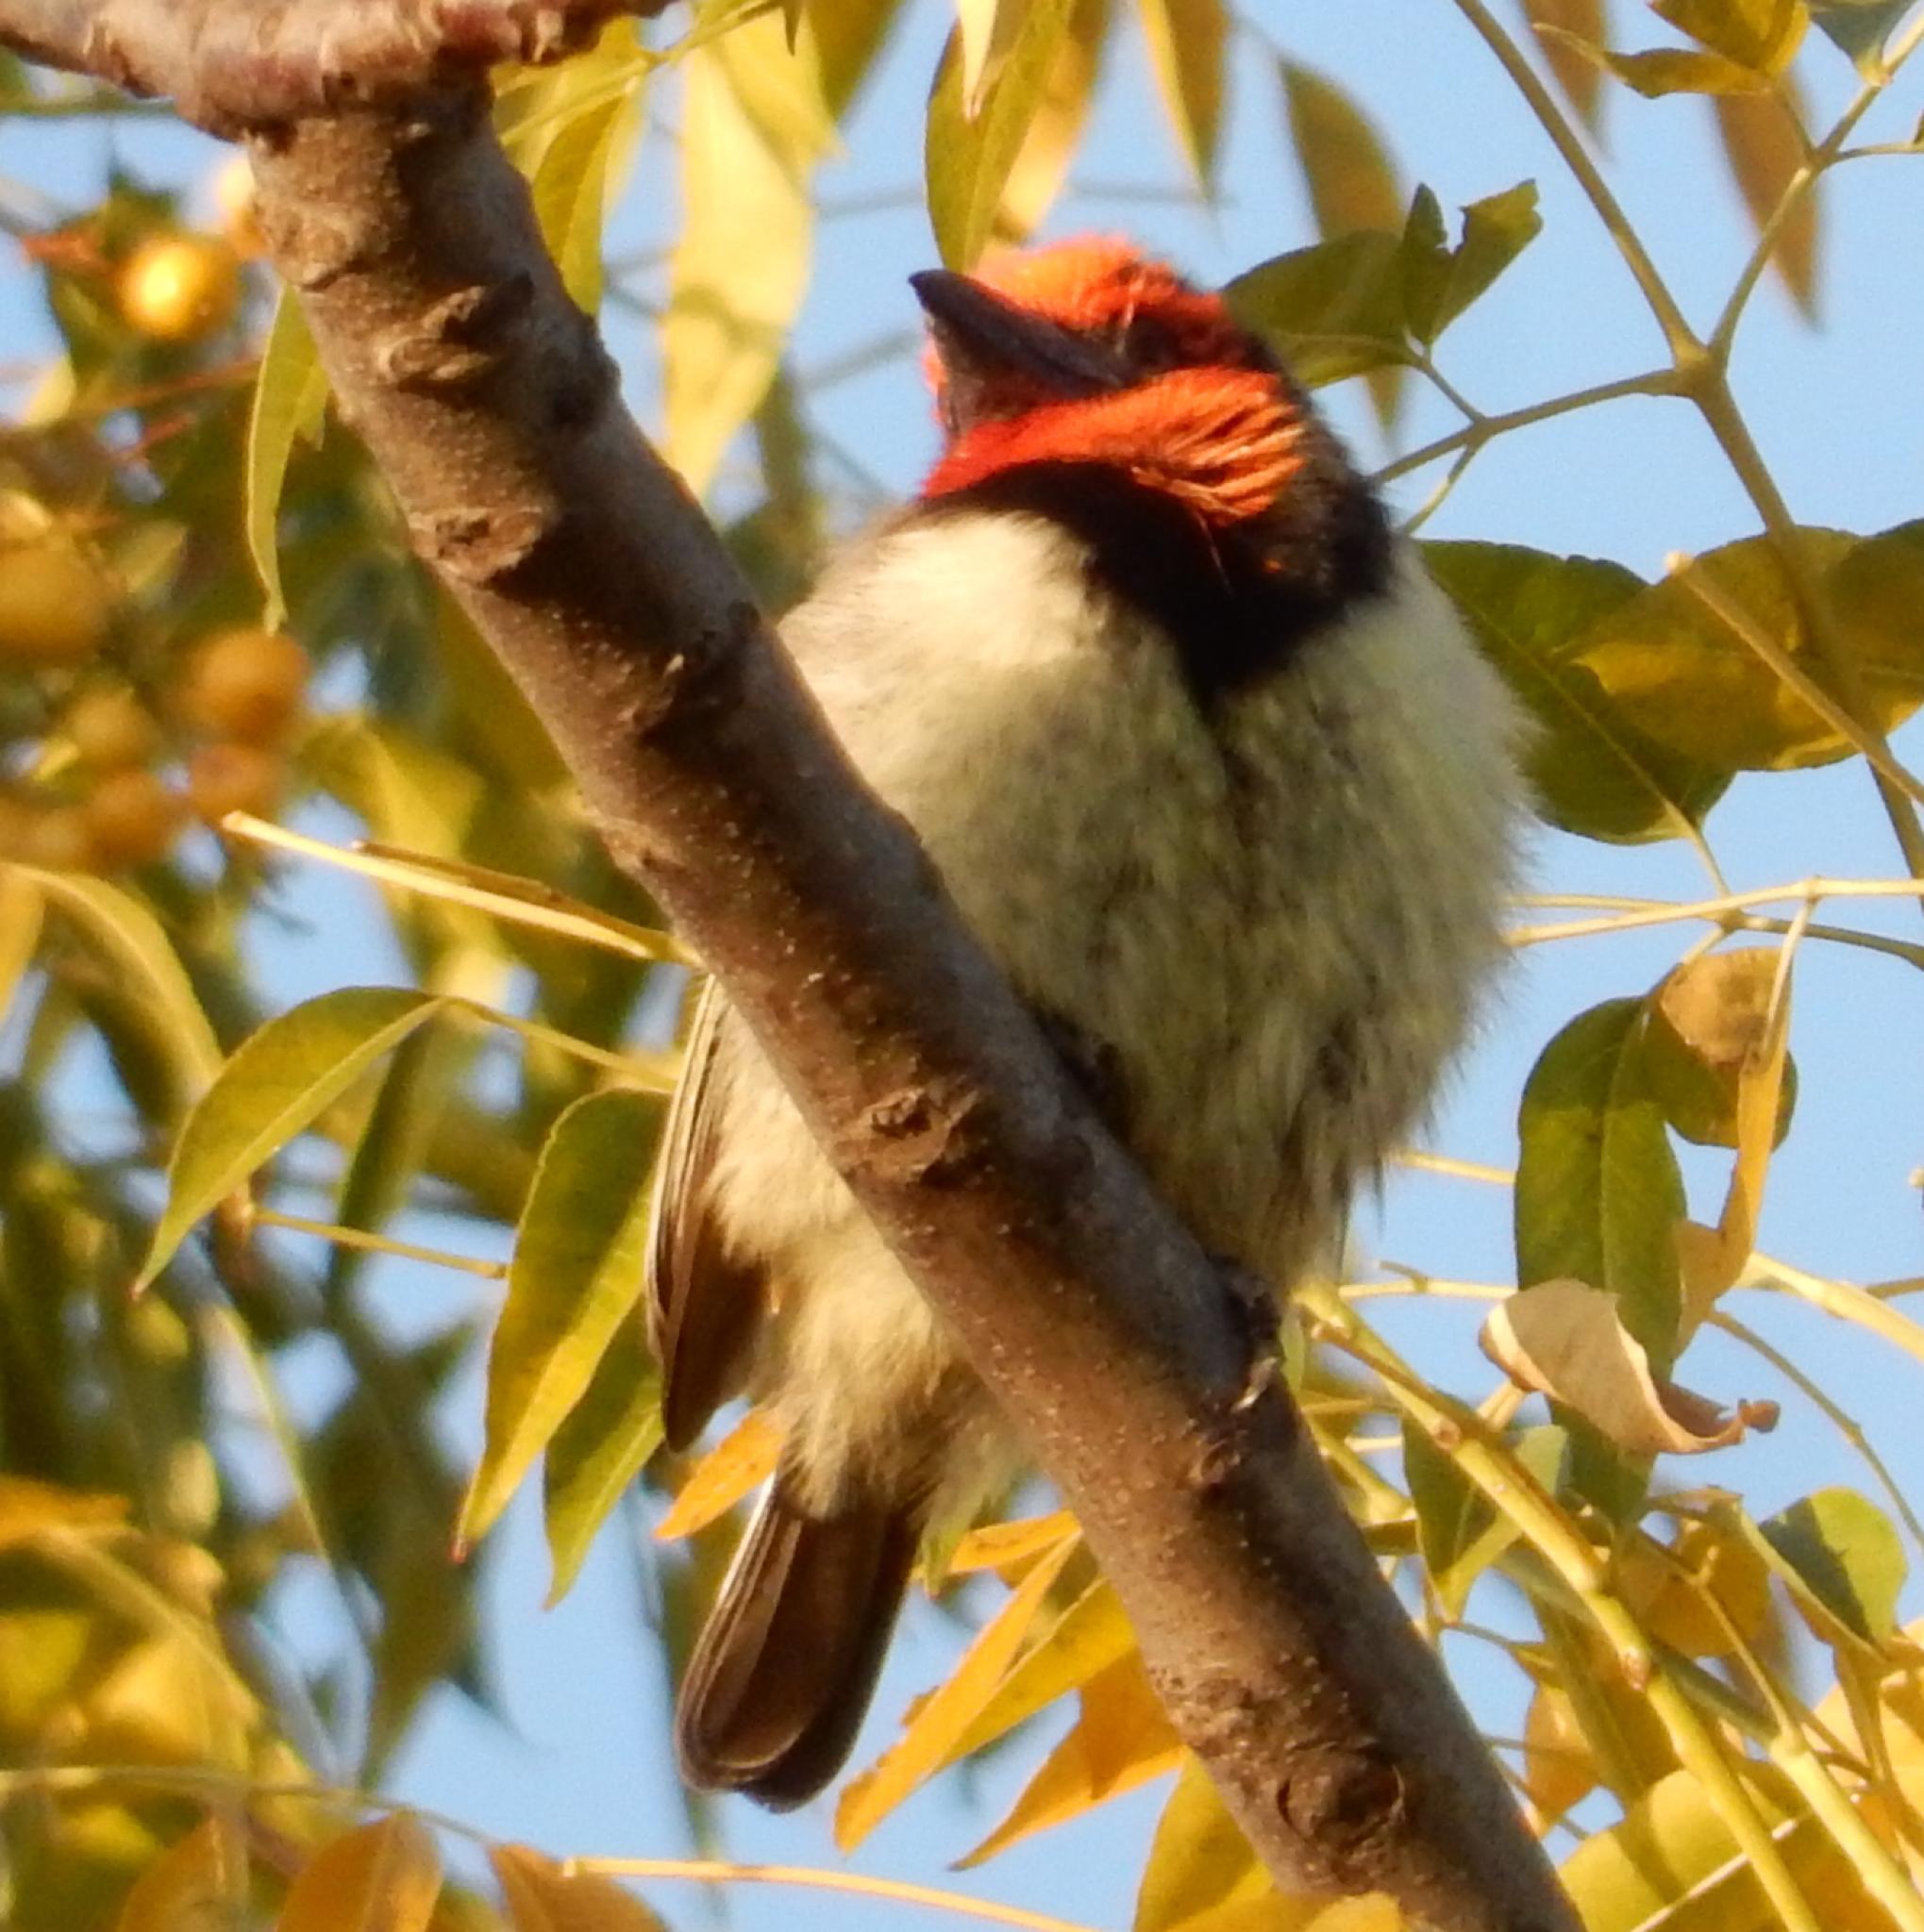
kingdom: Animalia
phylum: Chordata
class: Aves
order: Piciformes
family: Lybiidae
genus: Lybius
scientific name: Lybius torquatus
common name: Black-collared barbet
